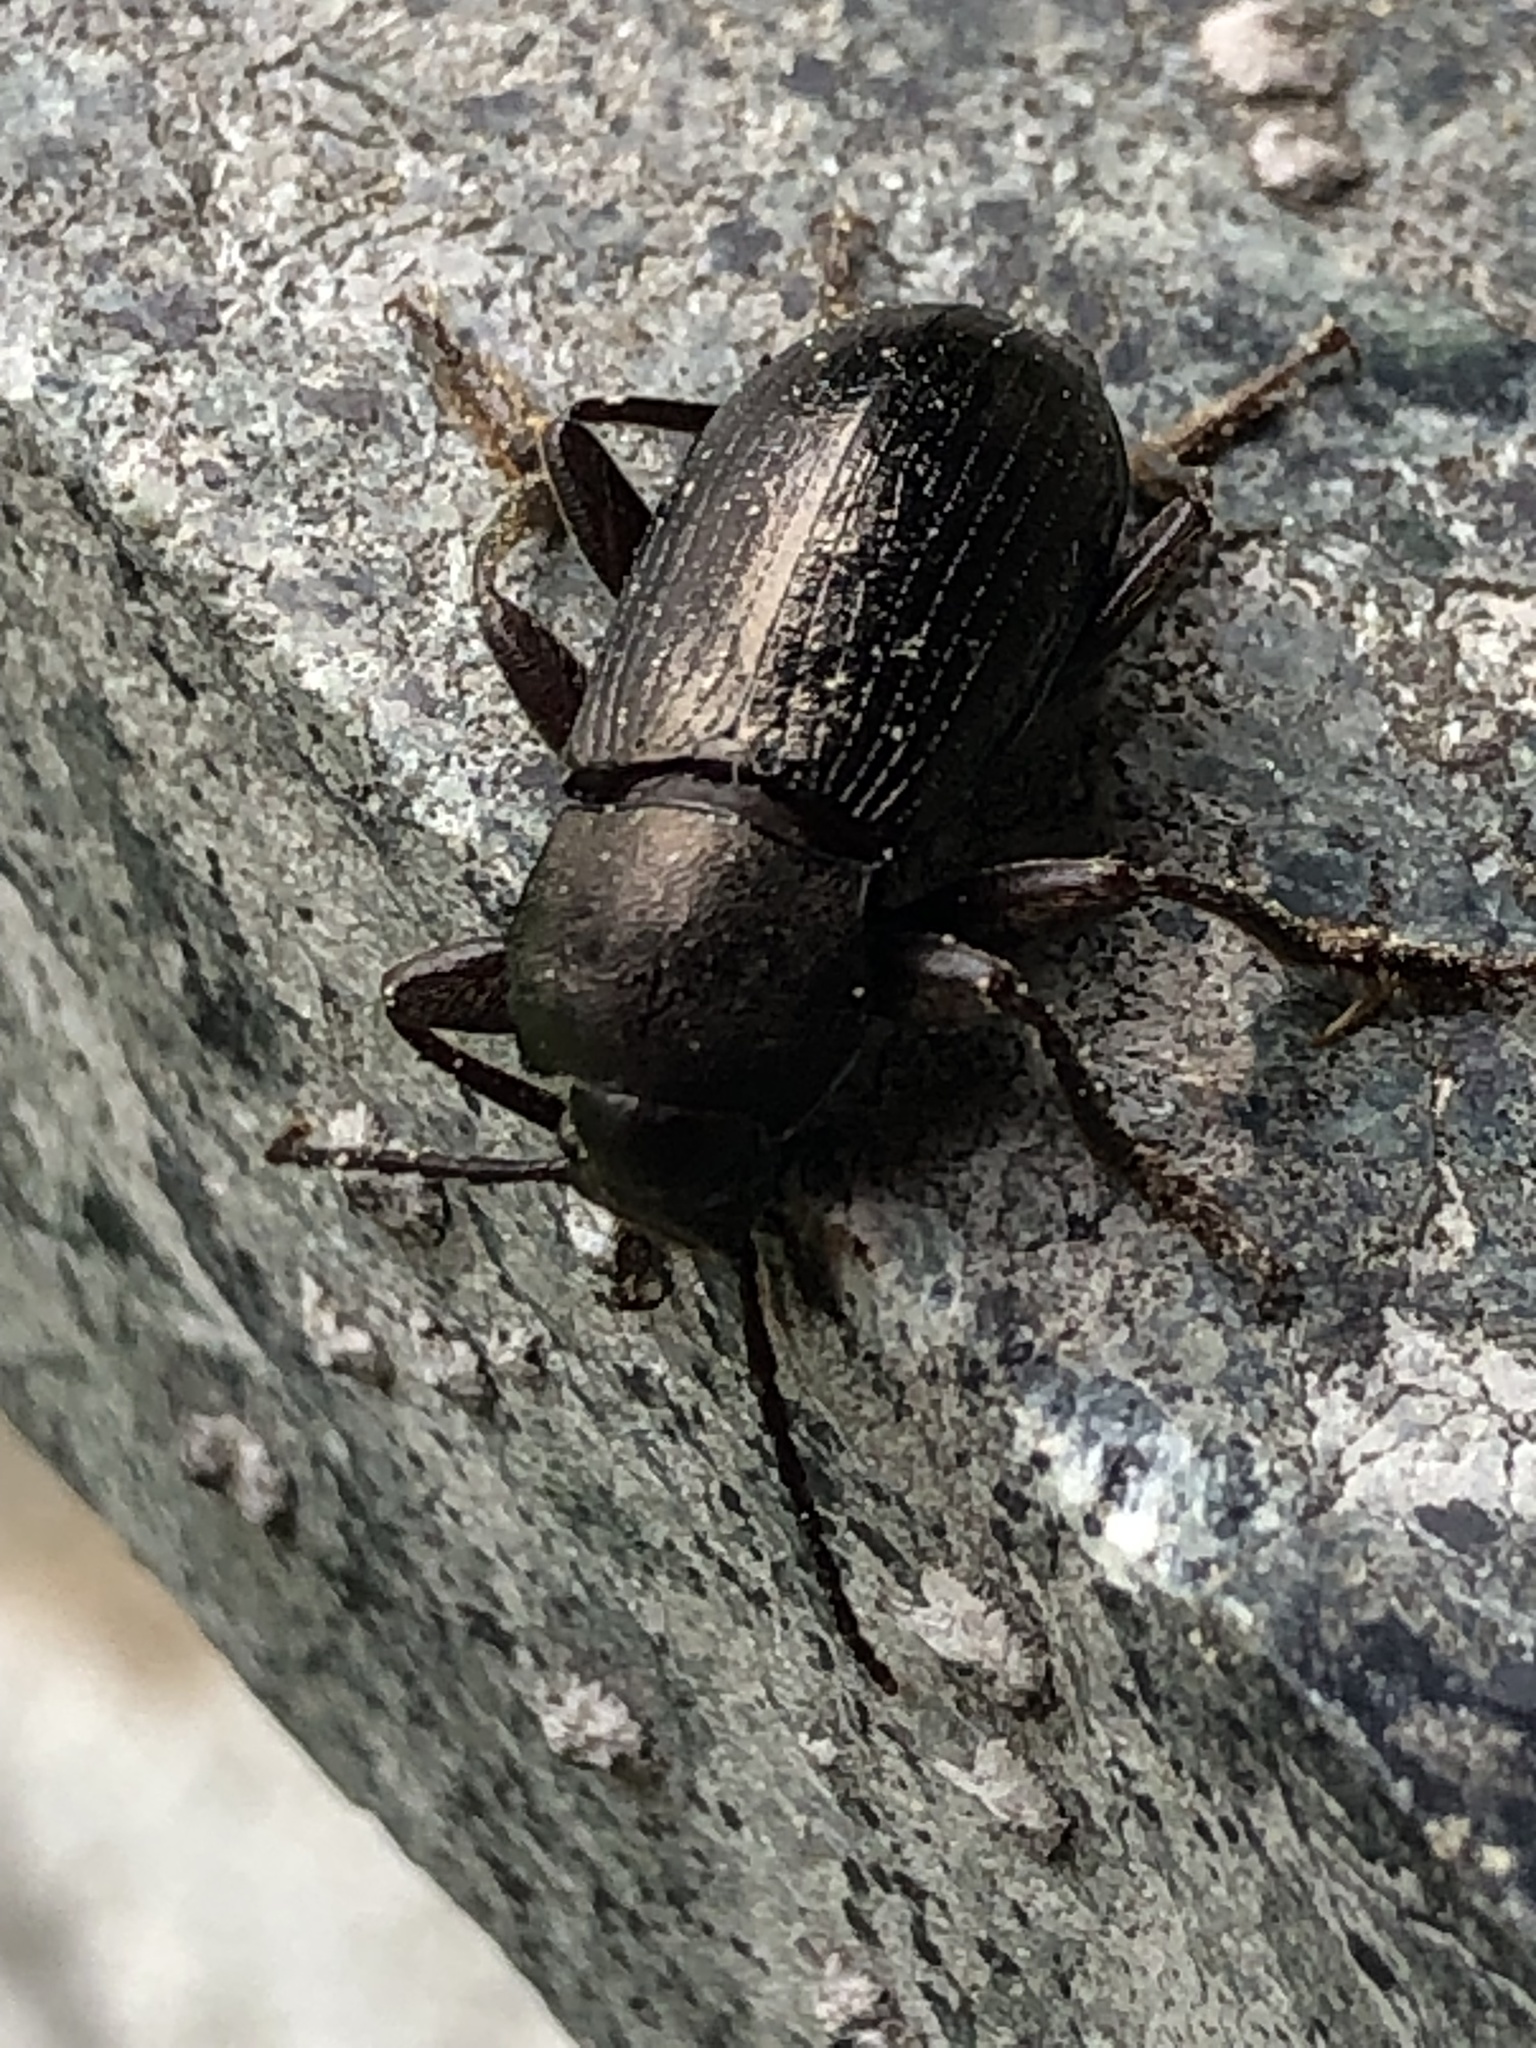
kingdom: Animalia
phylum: Arthropoda
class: Insecta
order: Coleoptera
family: Tenebrionidae
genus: Stenomax
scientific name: Stenomax aeneus
